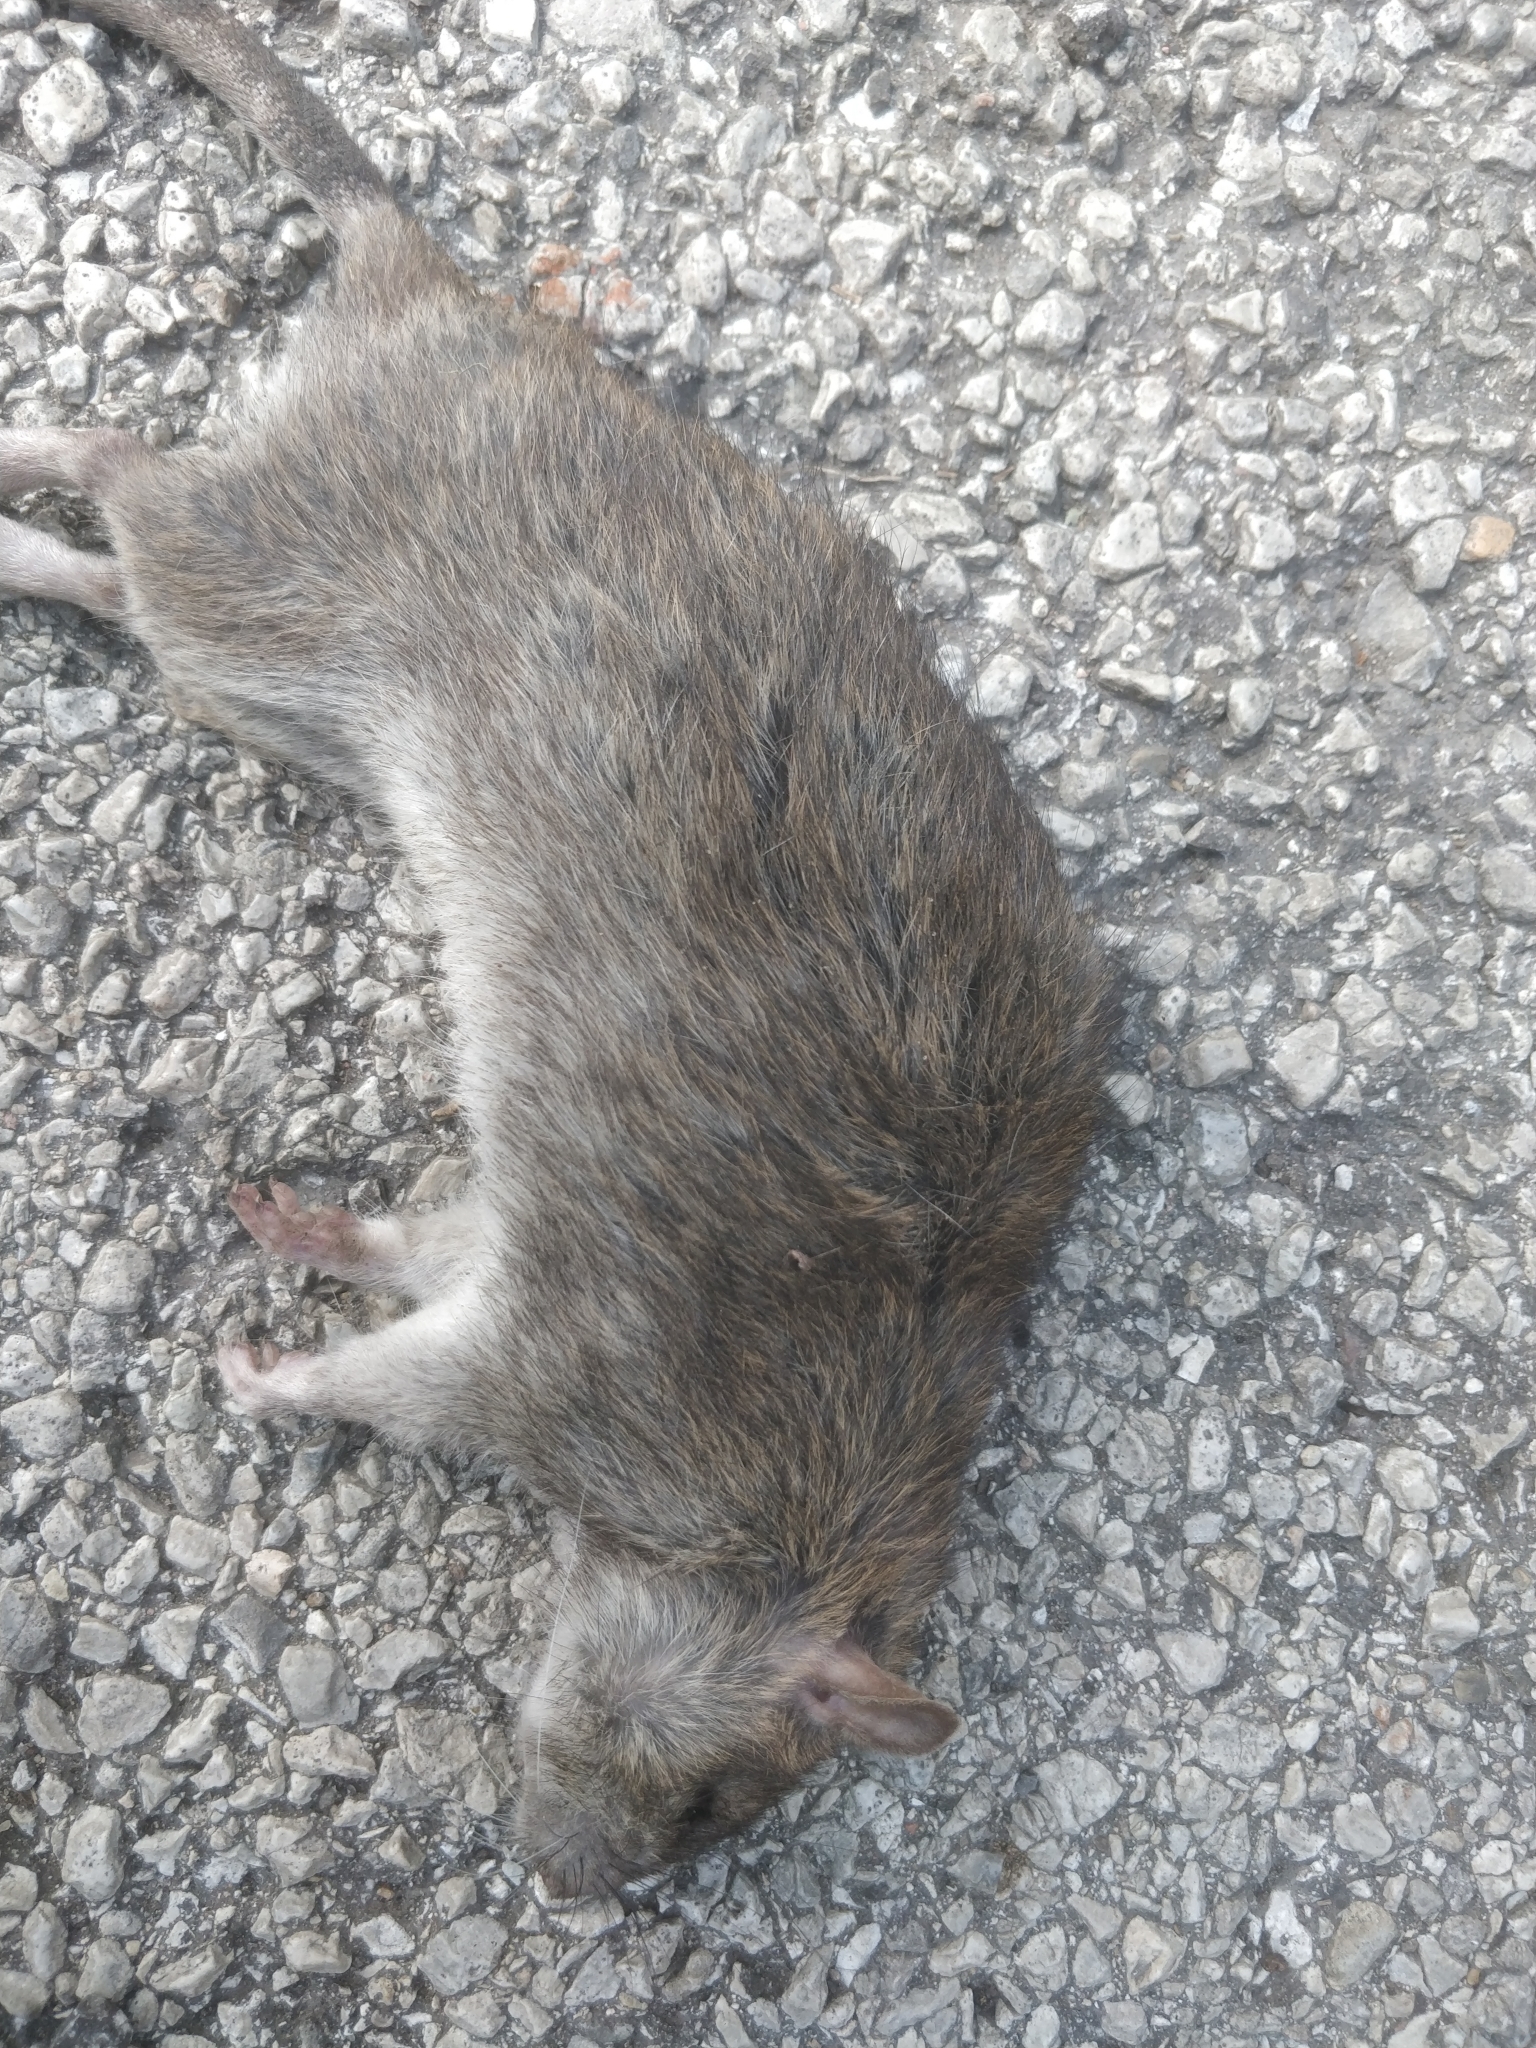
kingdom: Animalia
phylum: Chordata
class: Mammalia
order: Rodentia
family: Muridae
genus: Rattus
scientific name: Rattus norvegicus
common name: Brown rat
